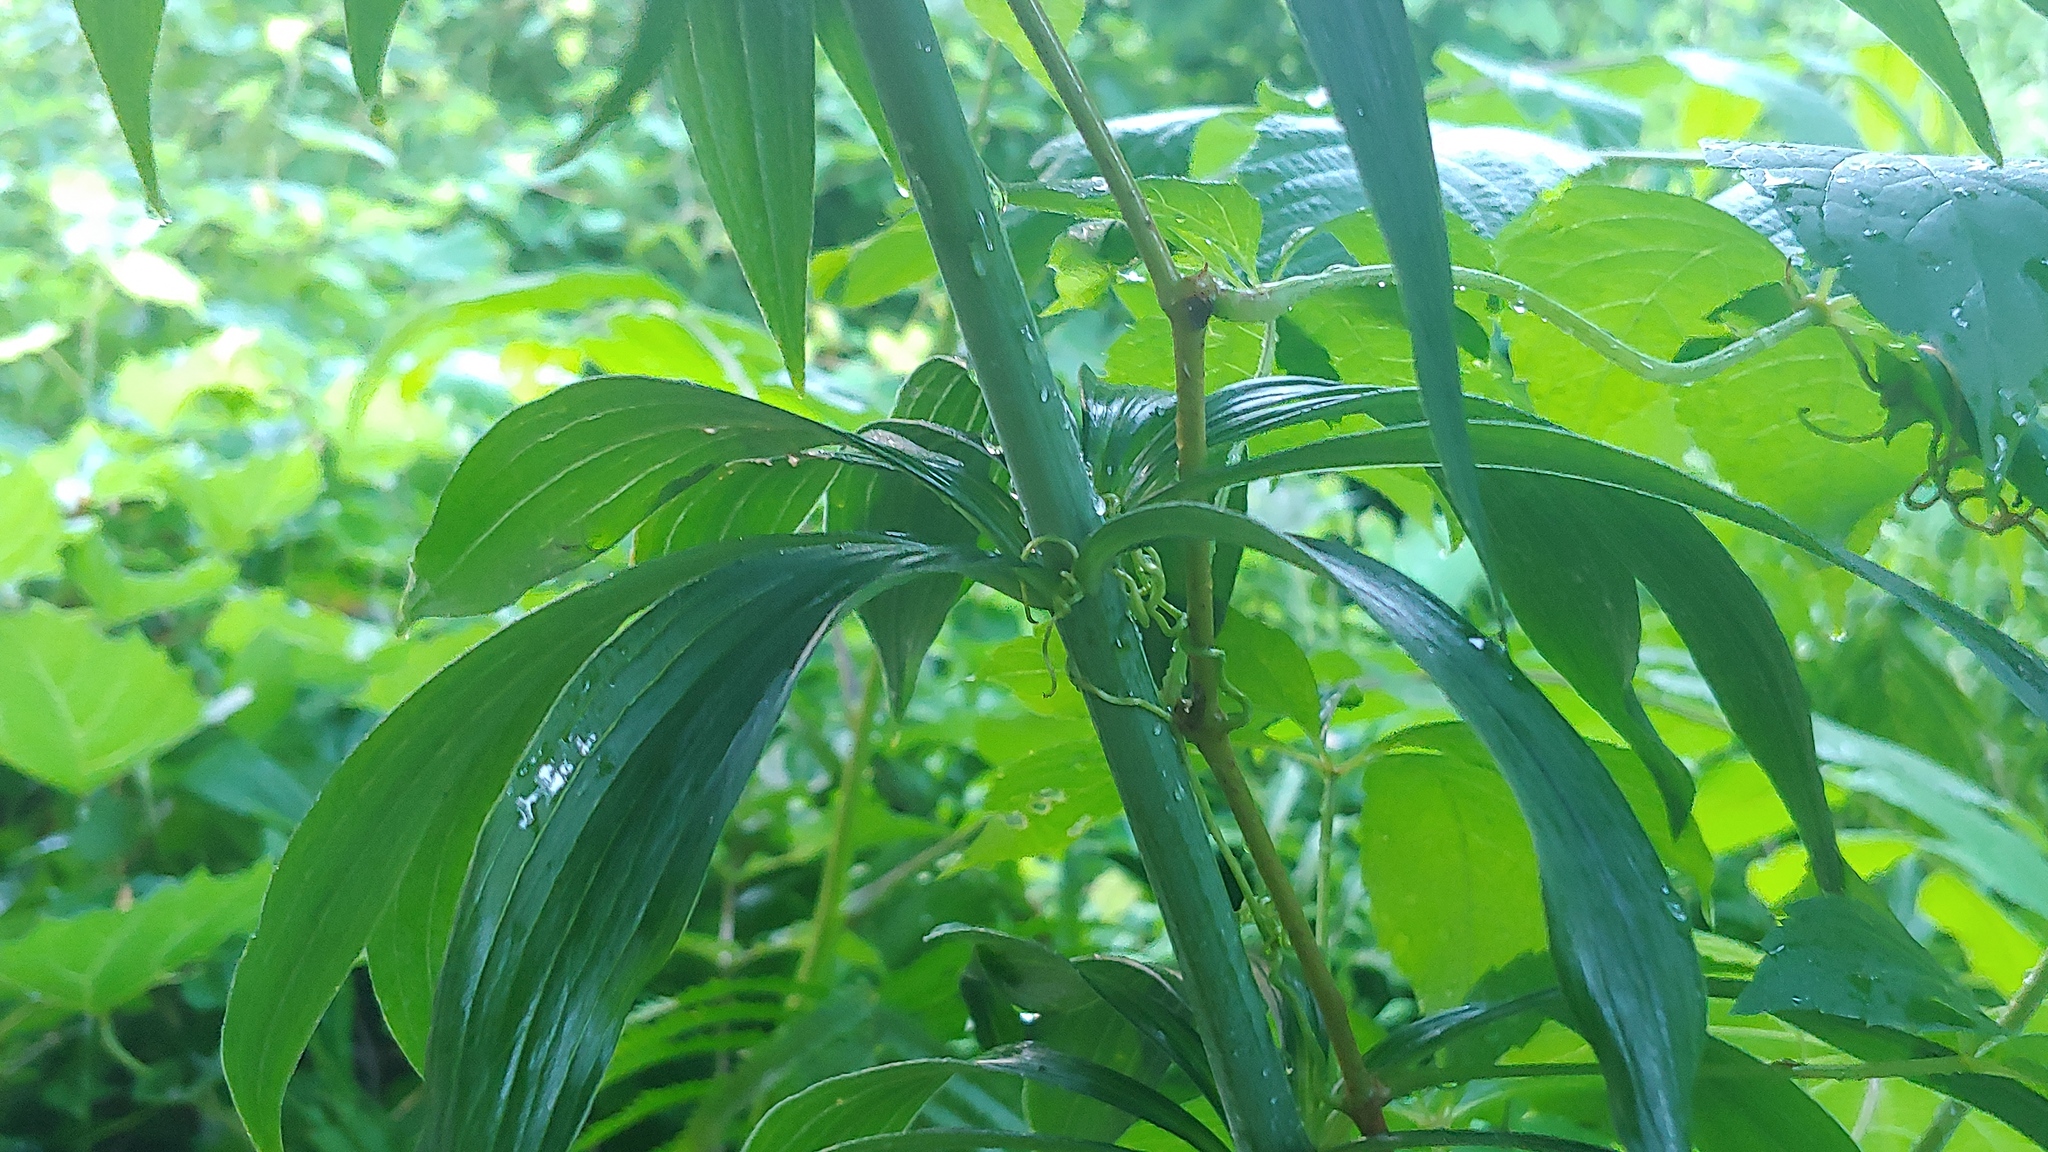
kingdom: Plantae
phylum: Tracheophyta
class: Liliopsida
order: Liliales
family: Liliaceae
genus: Lilium
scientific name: Lilium canadense
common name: Canada lily
